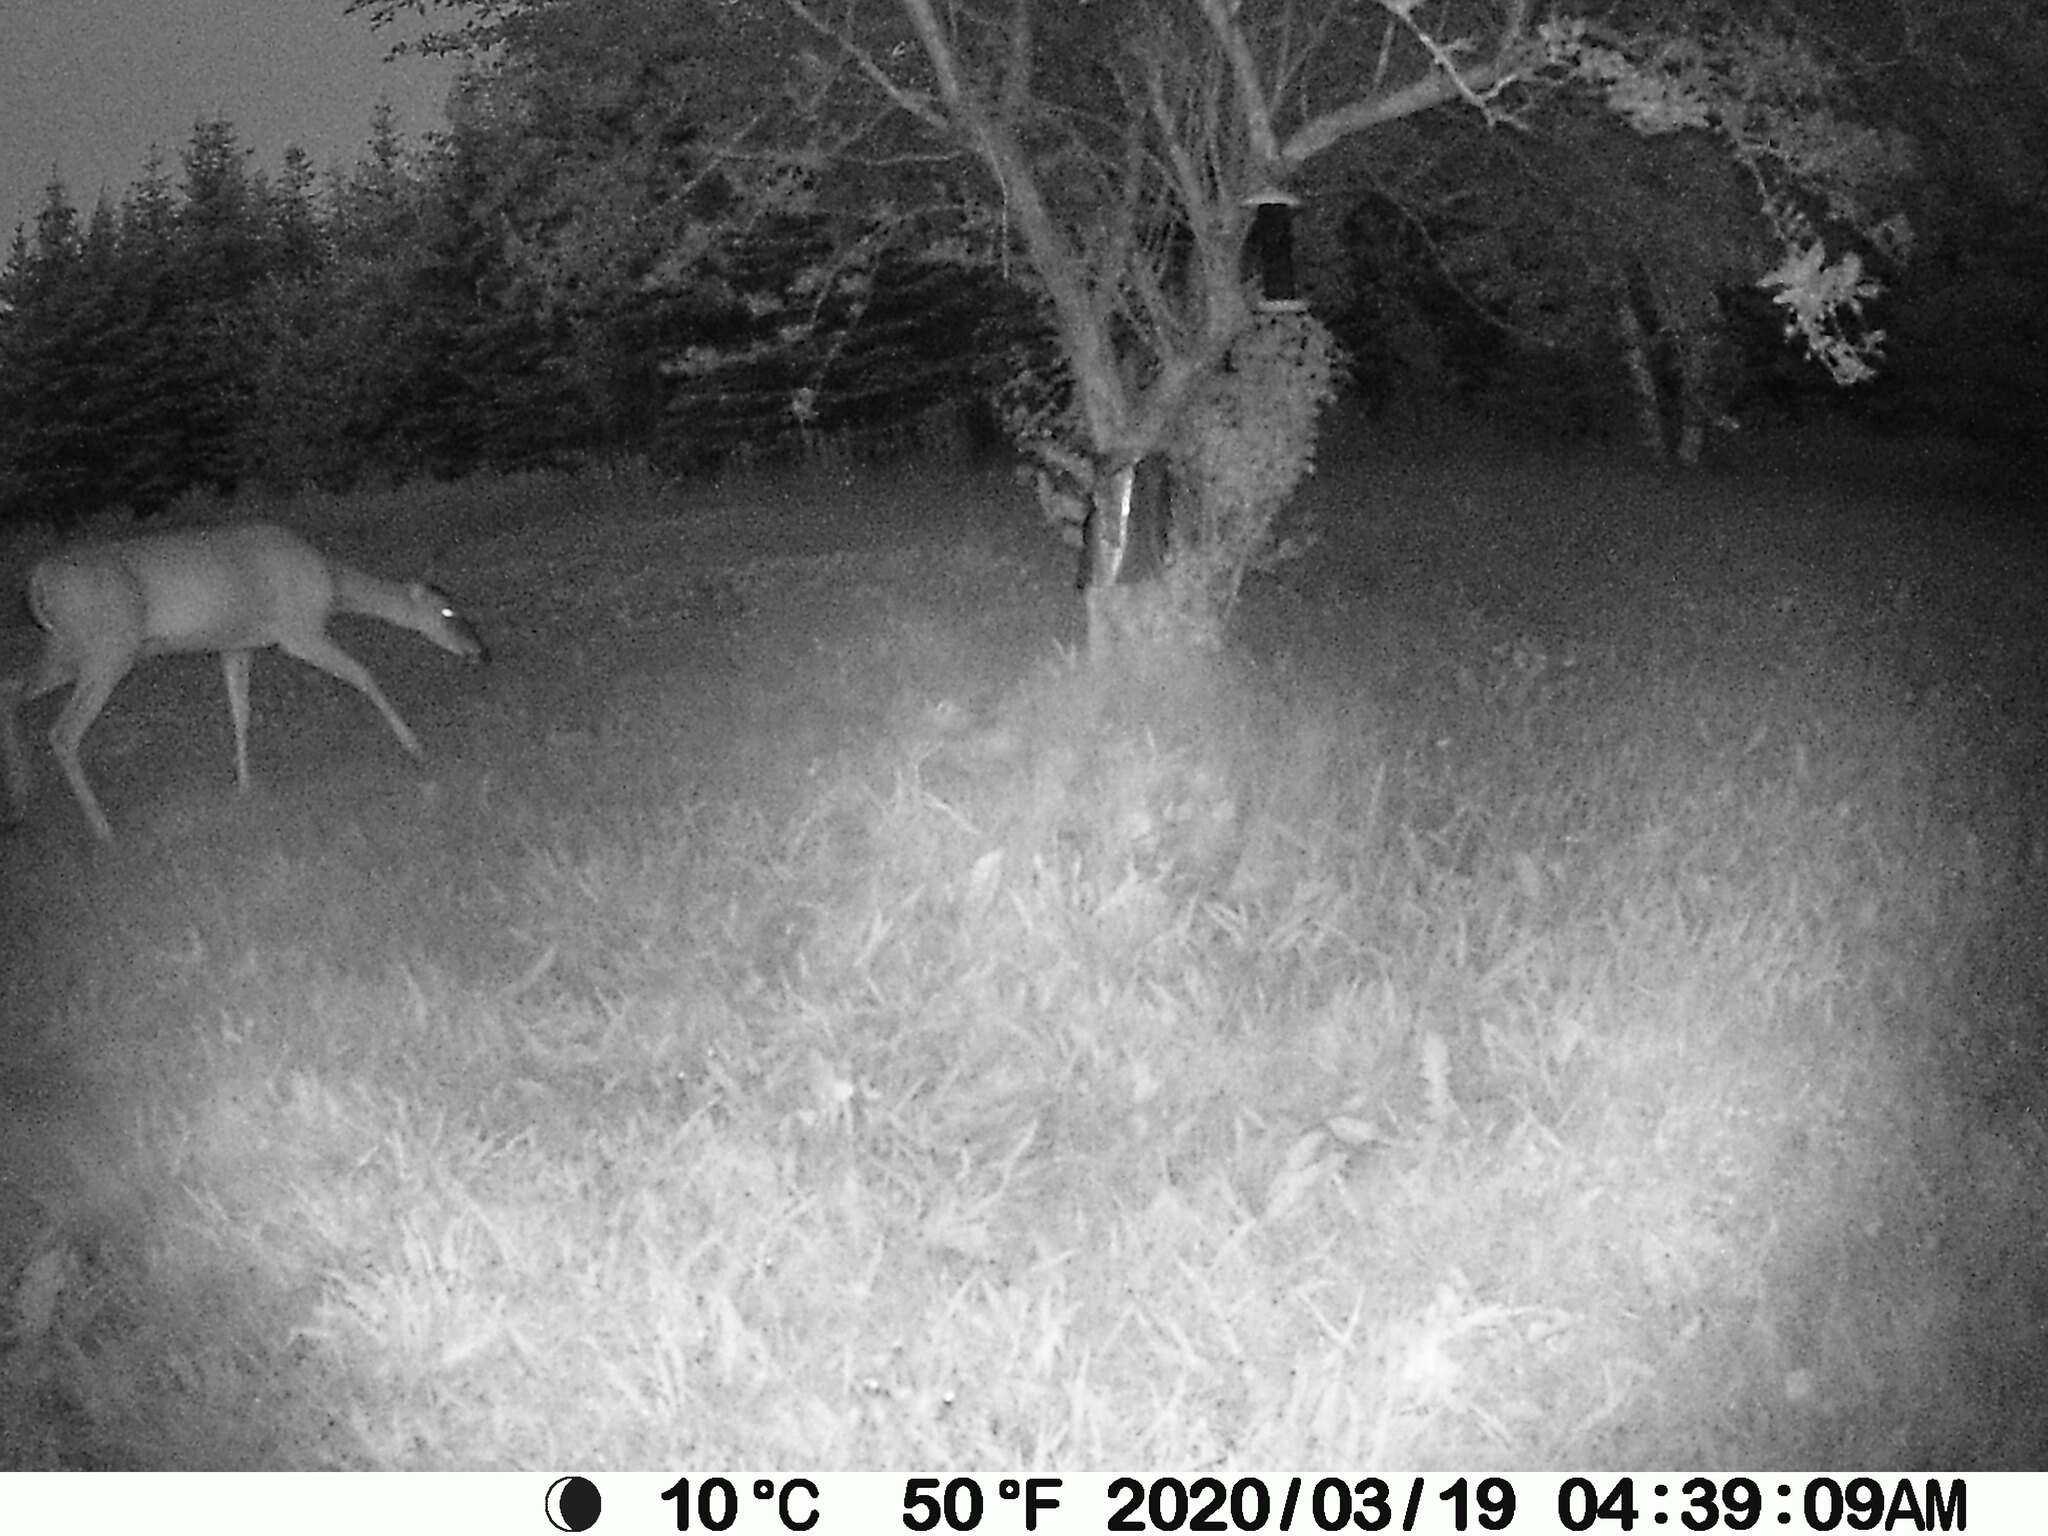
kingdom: Animalia
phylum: Chordata
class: Mammalia
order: Artiodactyla
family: Cervidae
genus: Odocoileus
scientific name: Odocoileus virginianus
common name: White-tailed deer
